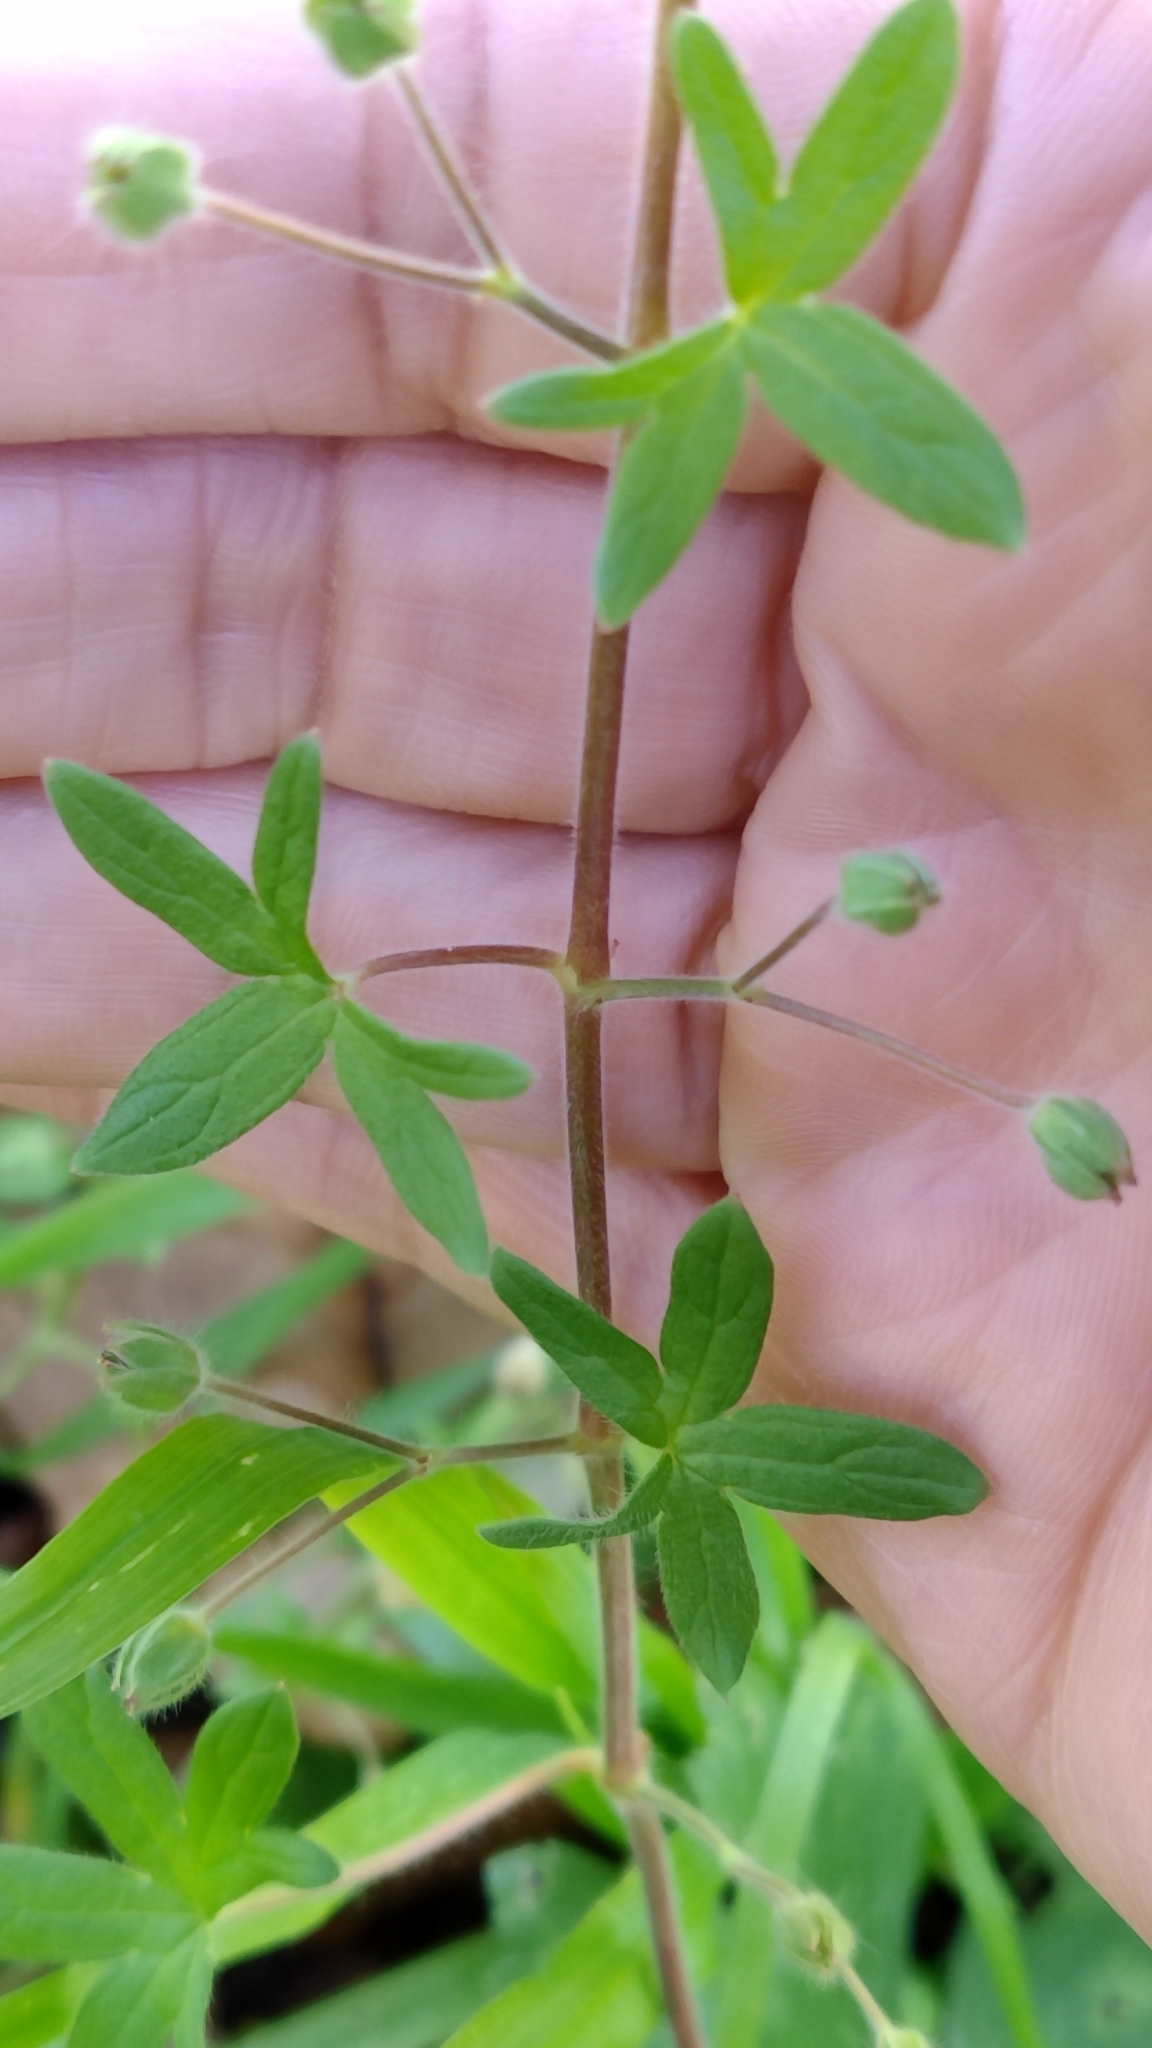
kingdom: Plantae
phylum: Tracheophyta
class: Magnoliopsida
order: Geraniales
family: Geraniaceae
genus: Geranium
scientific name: Geranium molle
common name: Dove's-foot crane's-bill
